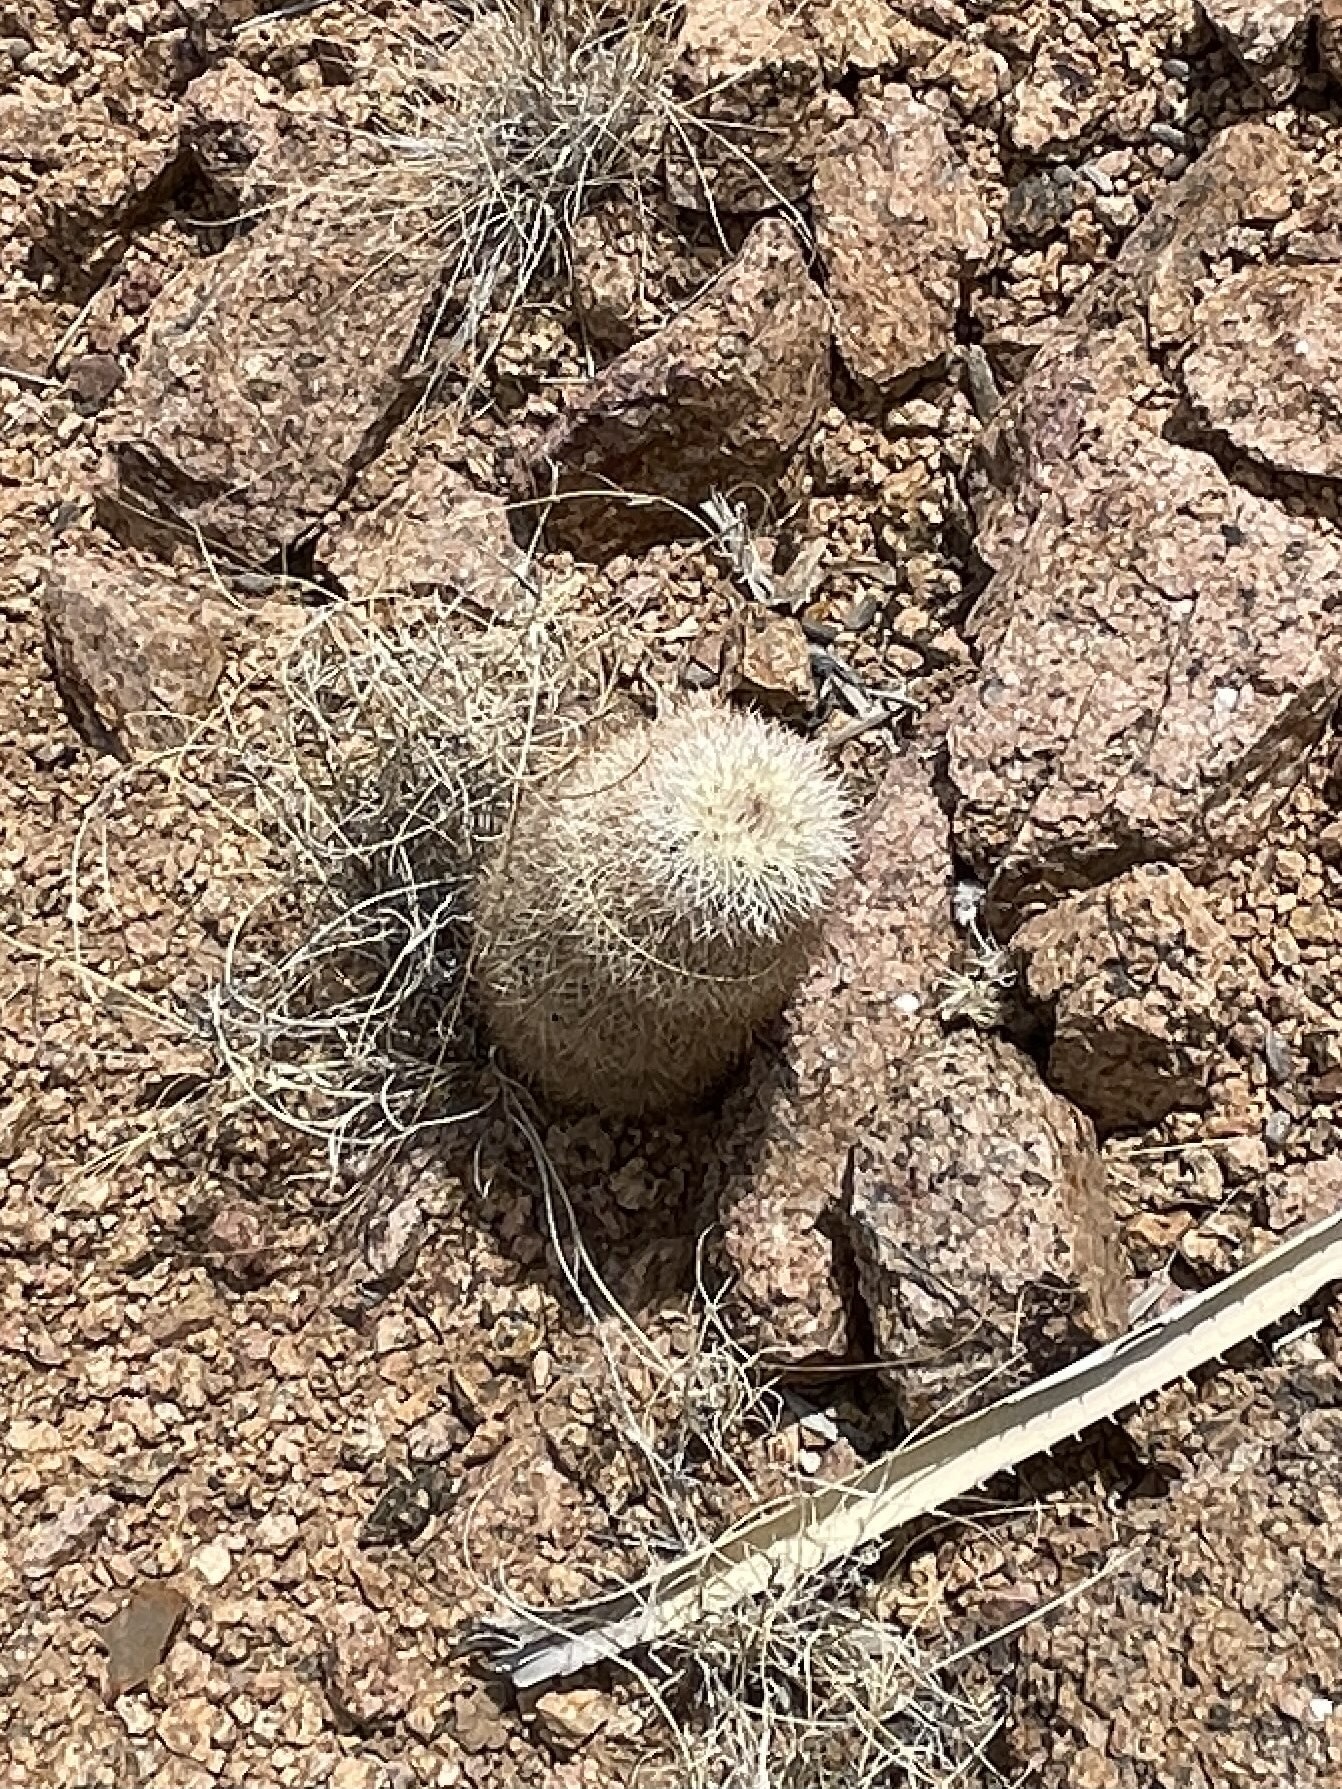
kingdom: Plantae
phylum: Tracheophyta
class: Magnoliopsida
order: Caryophyllales
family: Cactaceae
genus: Echinocereus
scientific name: Echinocereus dasyacanthus
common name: Spiny hedgehog cactus
